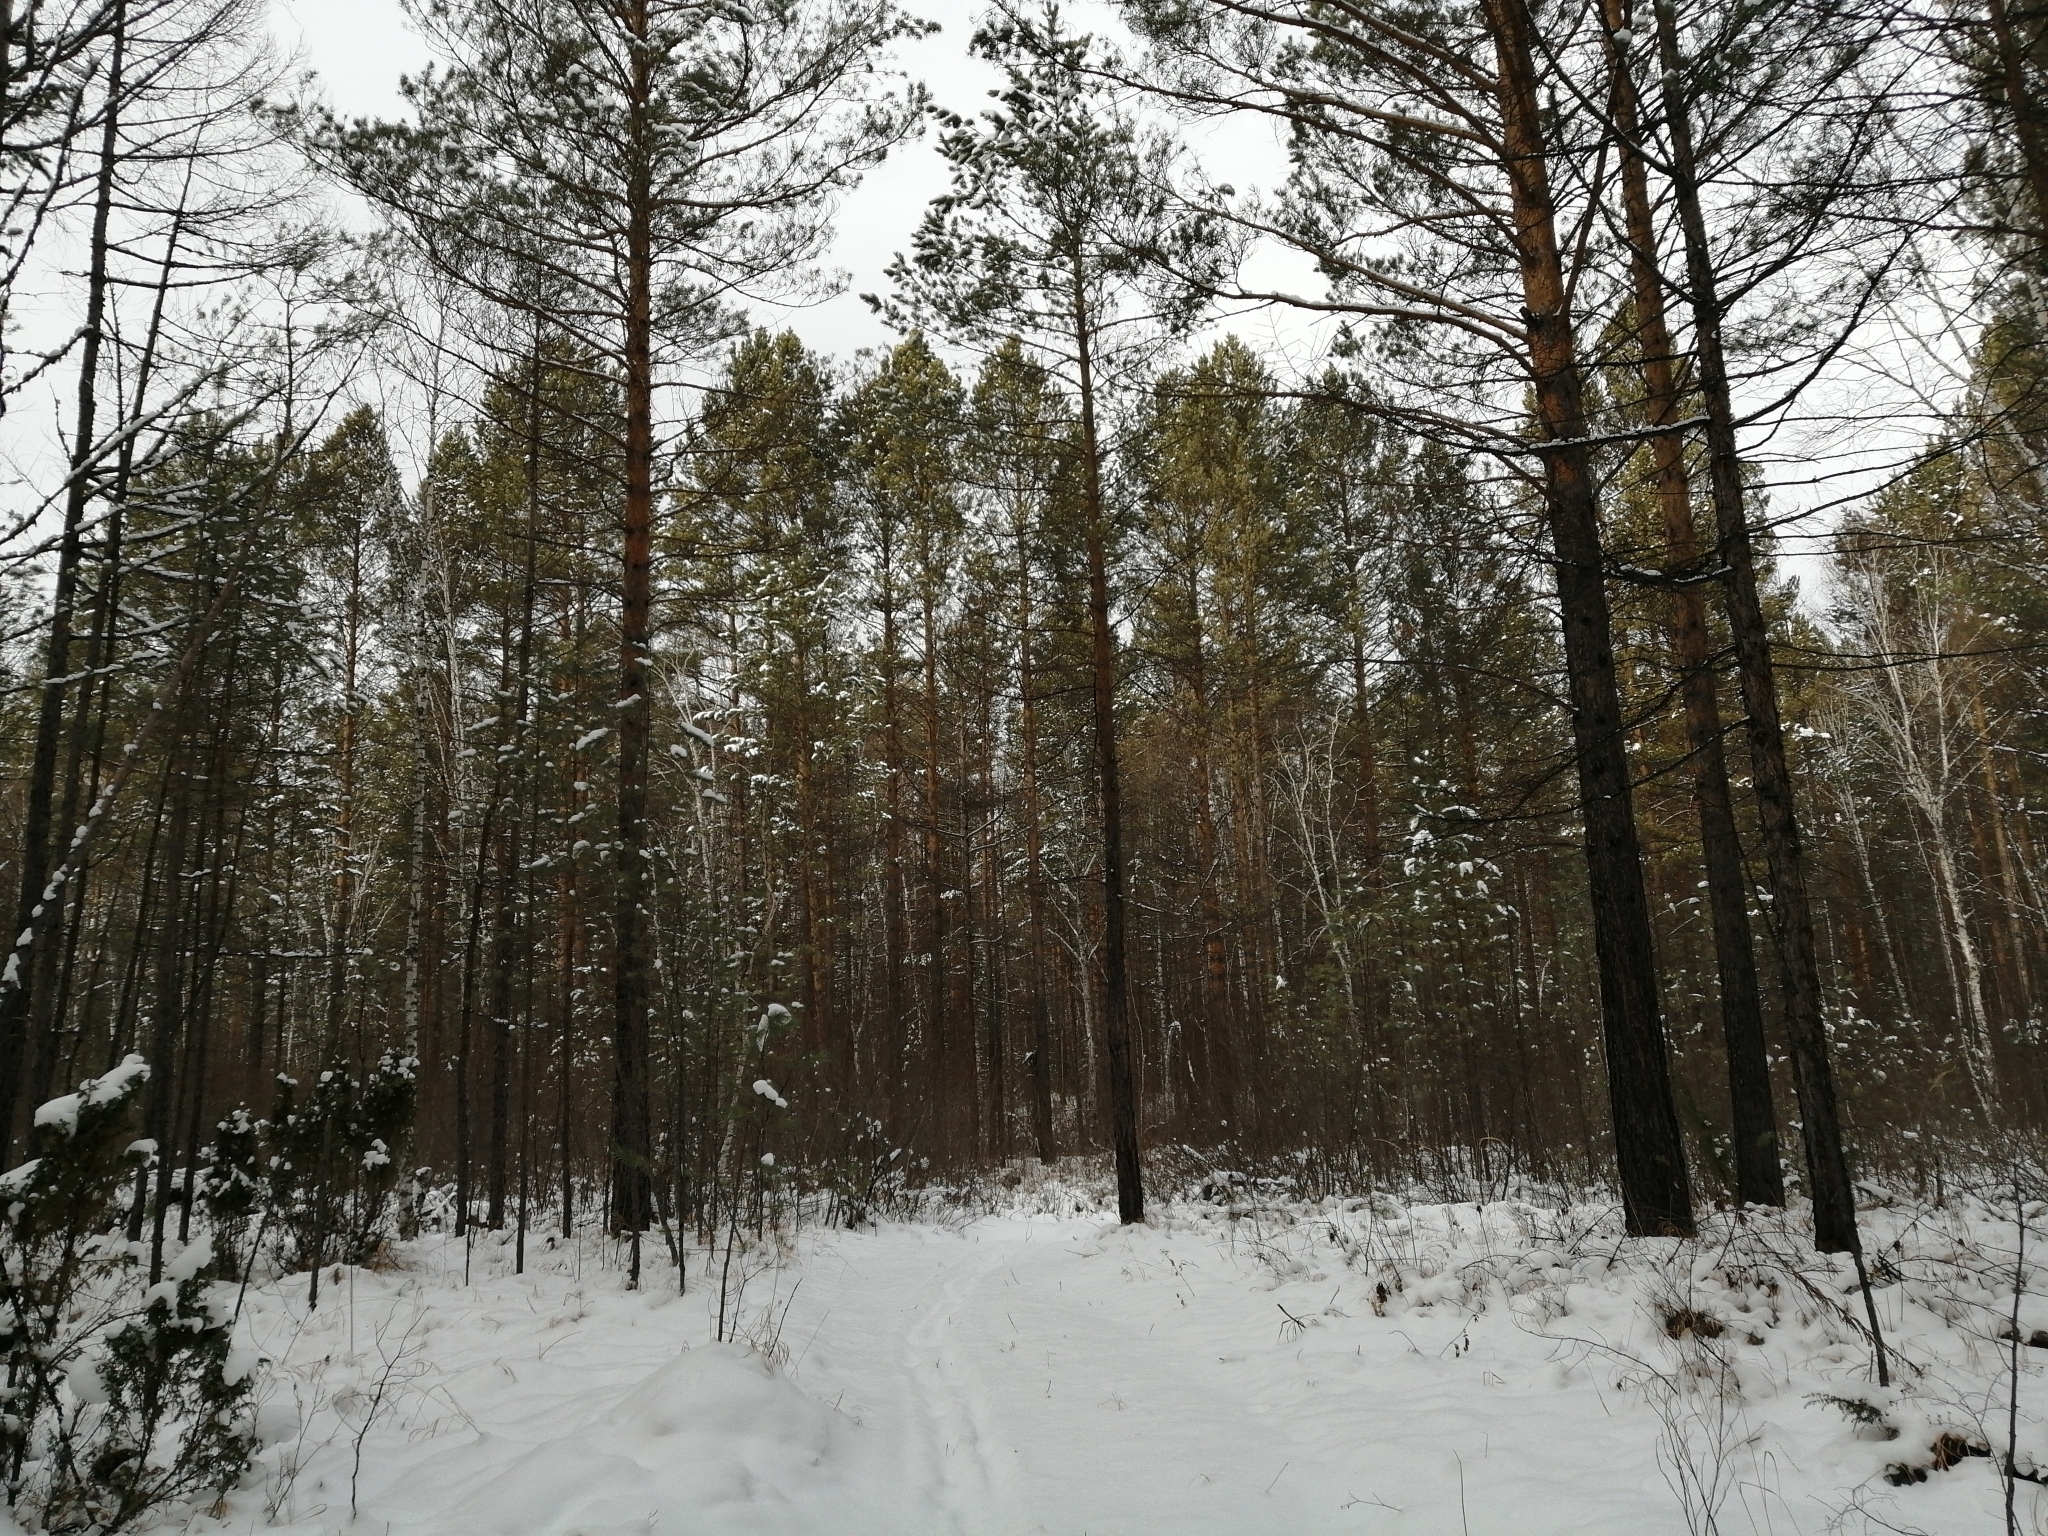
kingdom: Plantae
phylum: Tracheophyta
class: Pinopsida
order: Pinales
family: Pinaceae
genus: Pinus
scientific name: Pinus sylvestris
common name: Scots pine
